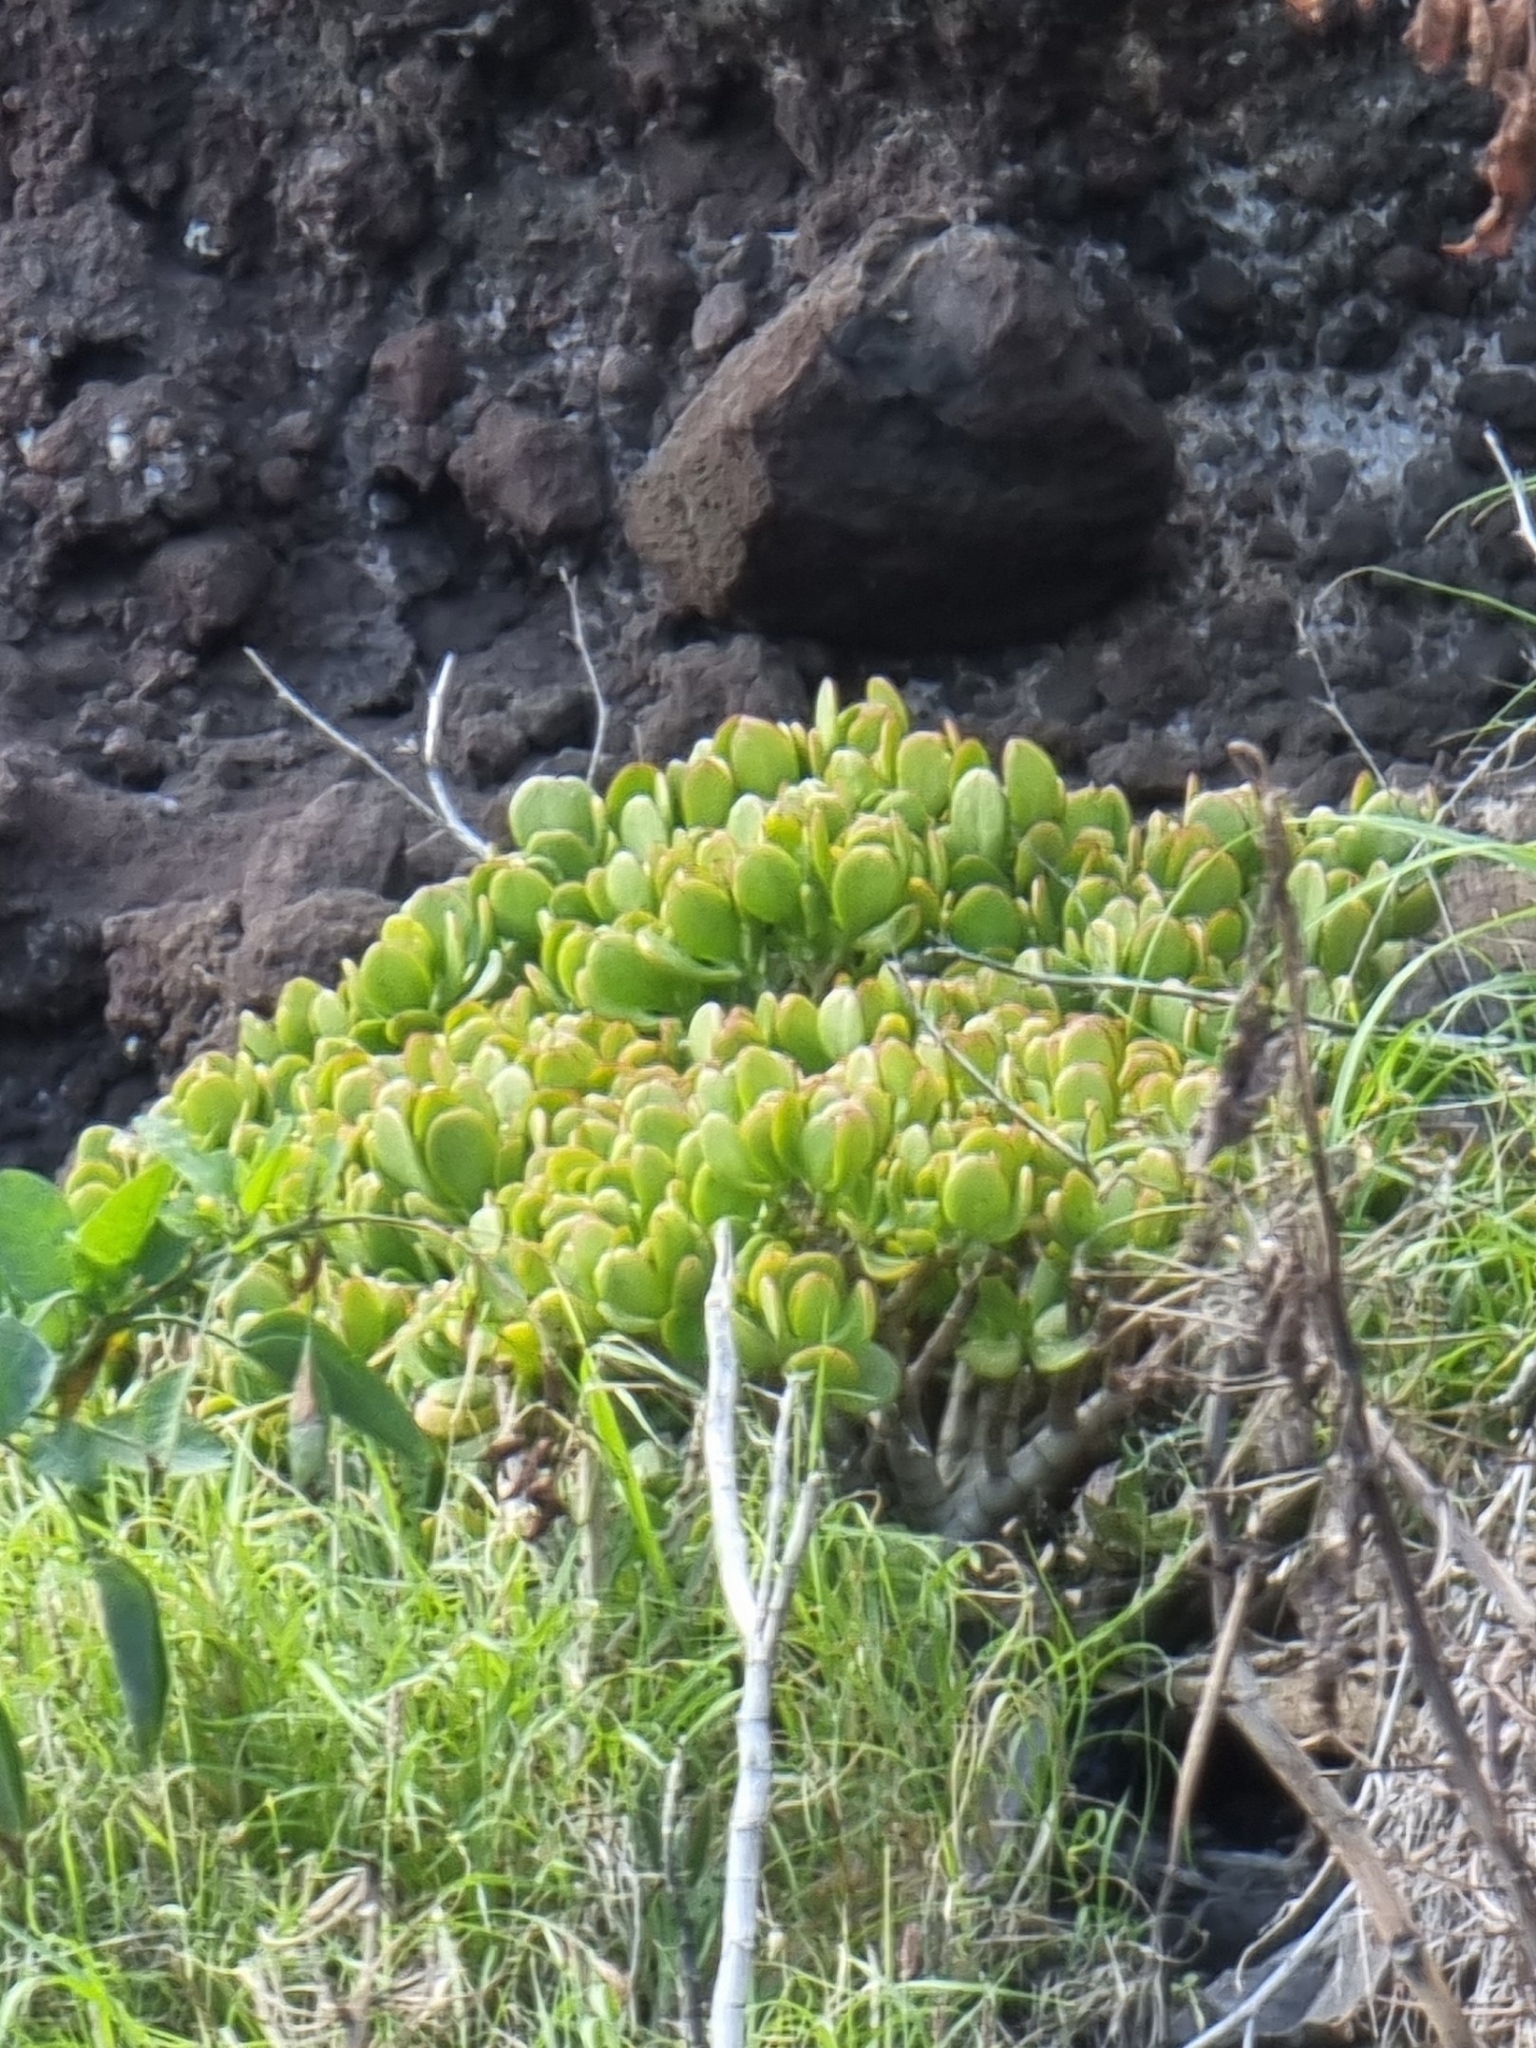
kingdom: Plantae
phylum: Tracheophyta
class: Magnoliopsida
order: Saxifragales
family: Crassulaceae
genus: Crassula
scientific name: Crassula ovata
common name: Jade plant
